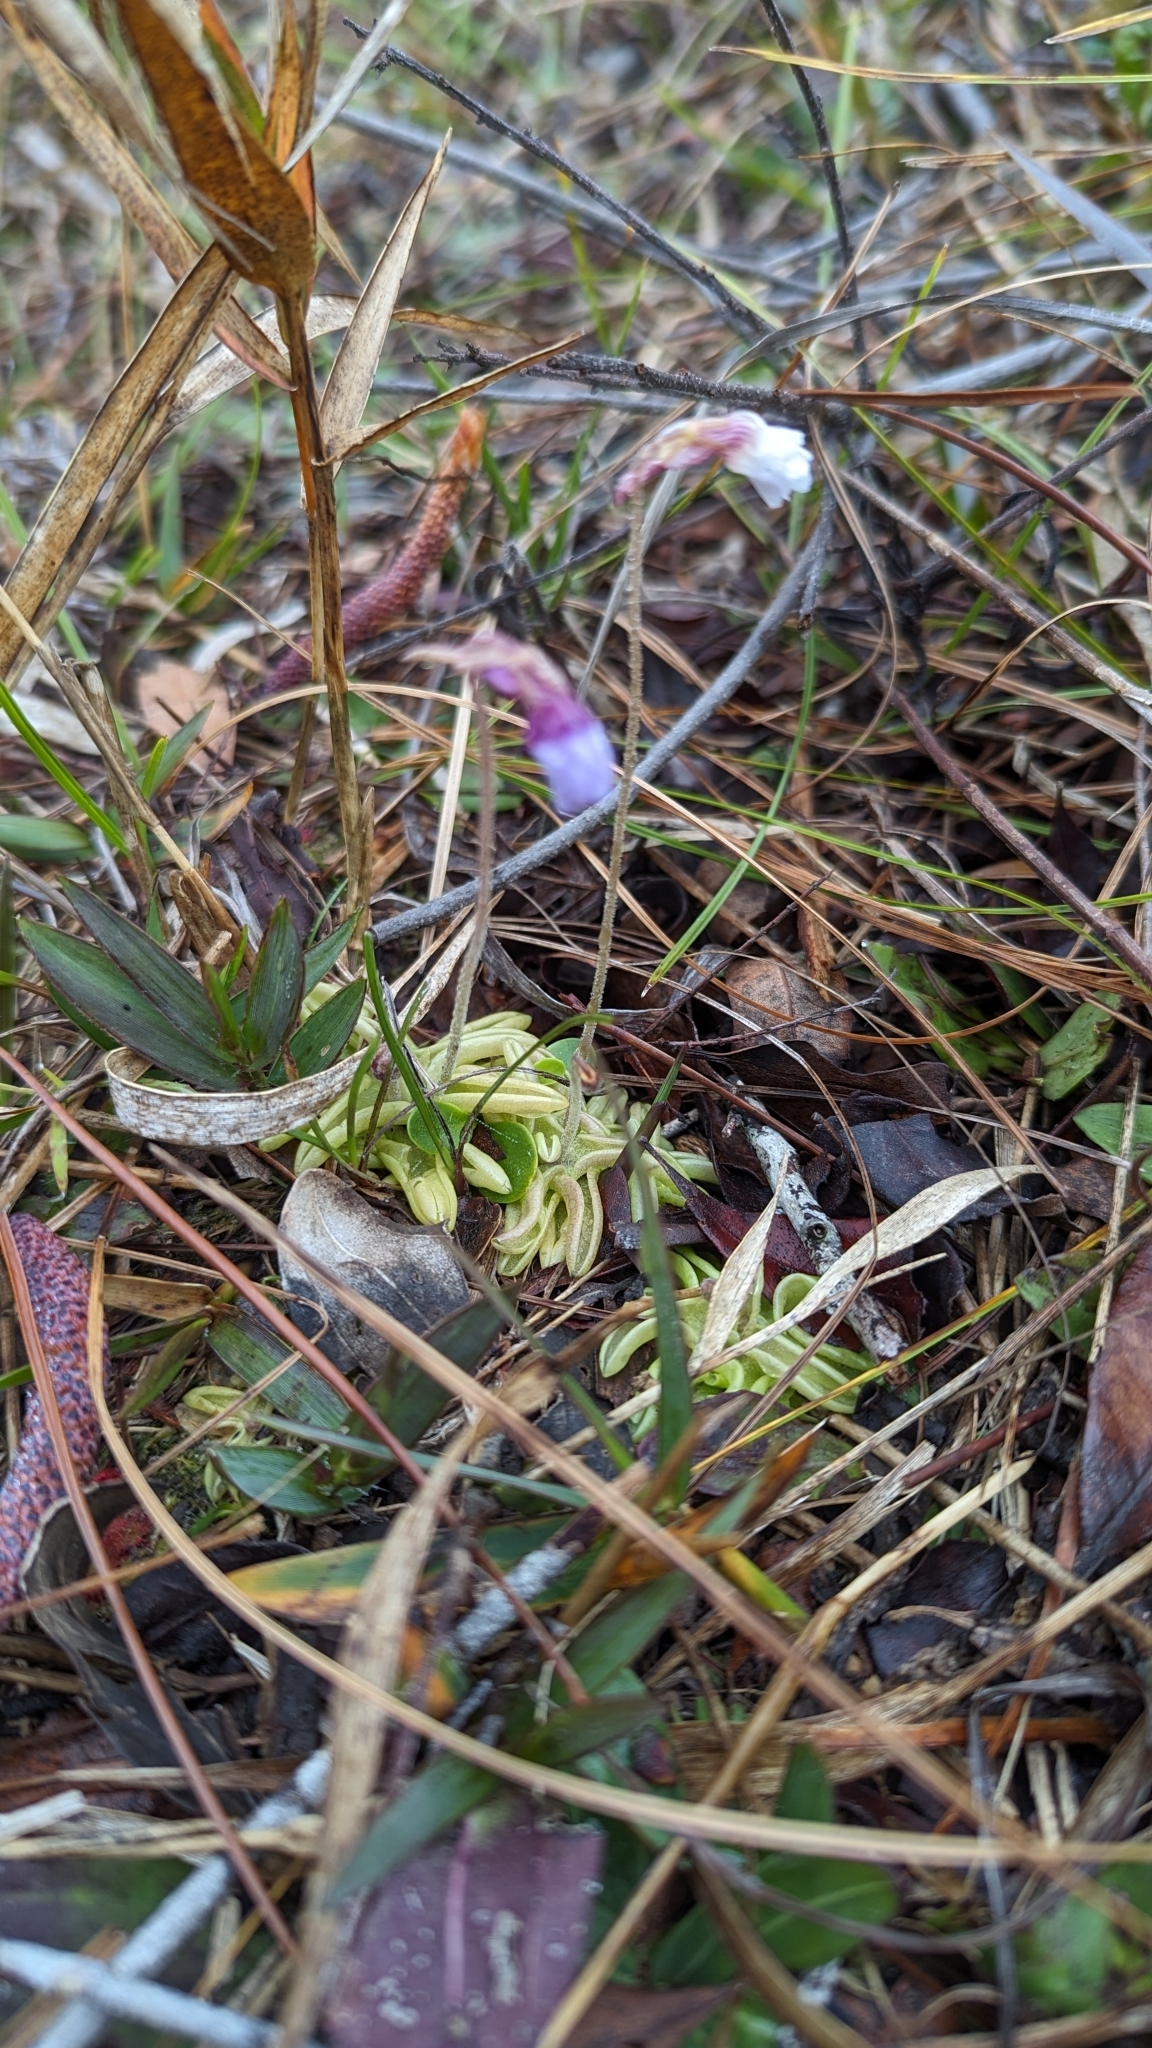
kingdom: Plantae
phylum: Tracheophyta
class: Magnoliopsida
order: Lamiales
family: Lentibulariaceae
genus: Pinguicula
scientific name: Pinguicula pumila
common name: Small butterwort
